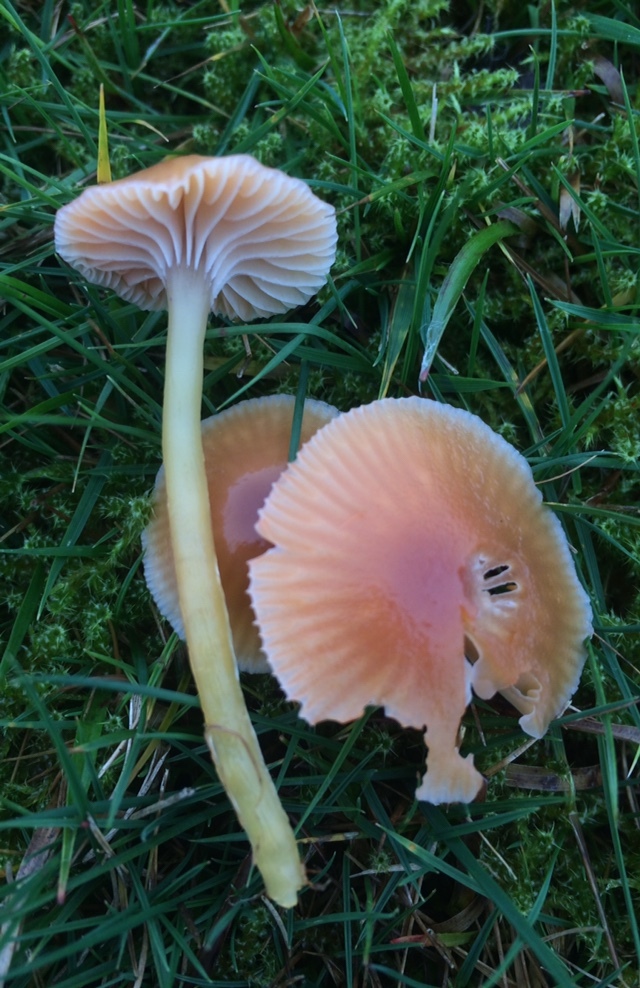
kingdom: Fungi
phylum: Basidiomycota
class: Agaricomycetes
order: Agaricales
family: Hygrophoraceae
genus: Gliophorus
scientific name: Gliophorus laetus
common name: Heath waxcap
